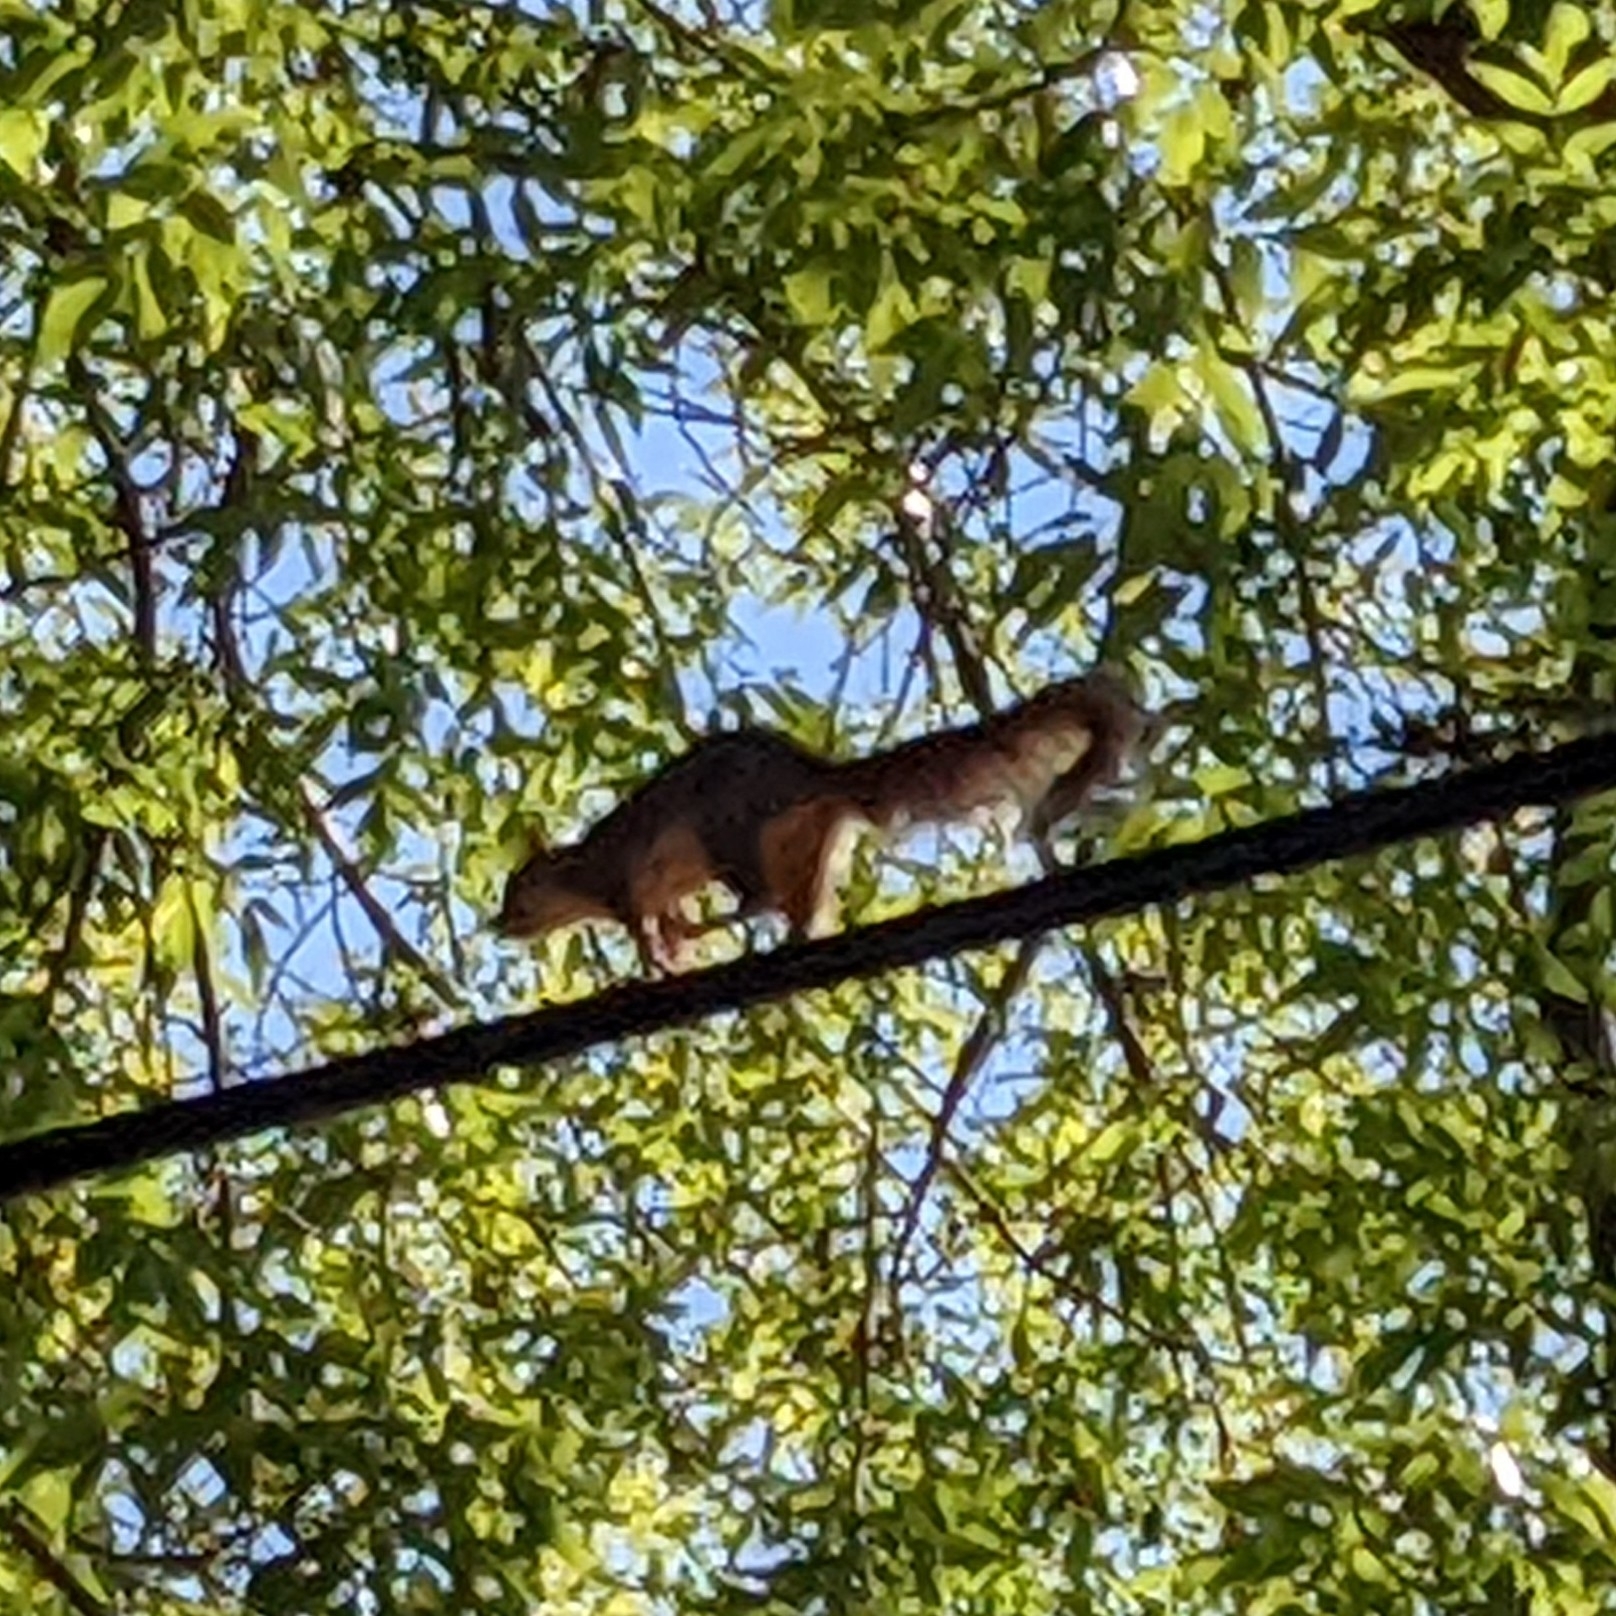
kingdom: Animalia
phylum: Chordata
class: Mammalia
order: Rodentia
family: Sciuridae
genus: Sciurus
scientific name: Sciurus niger
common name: Fox squirrel
